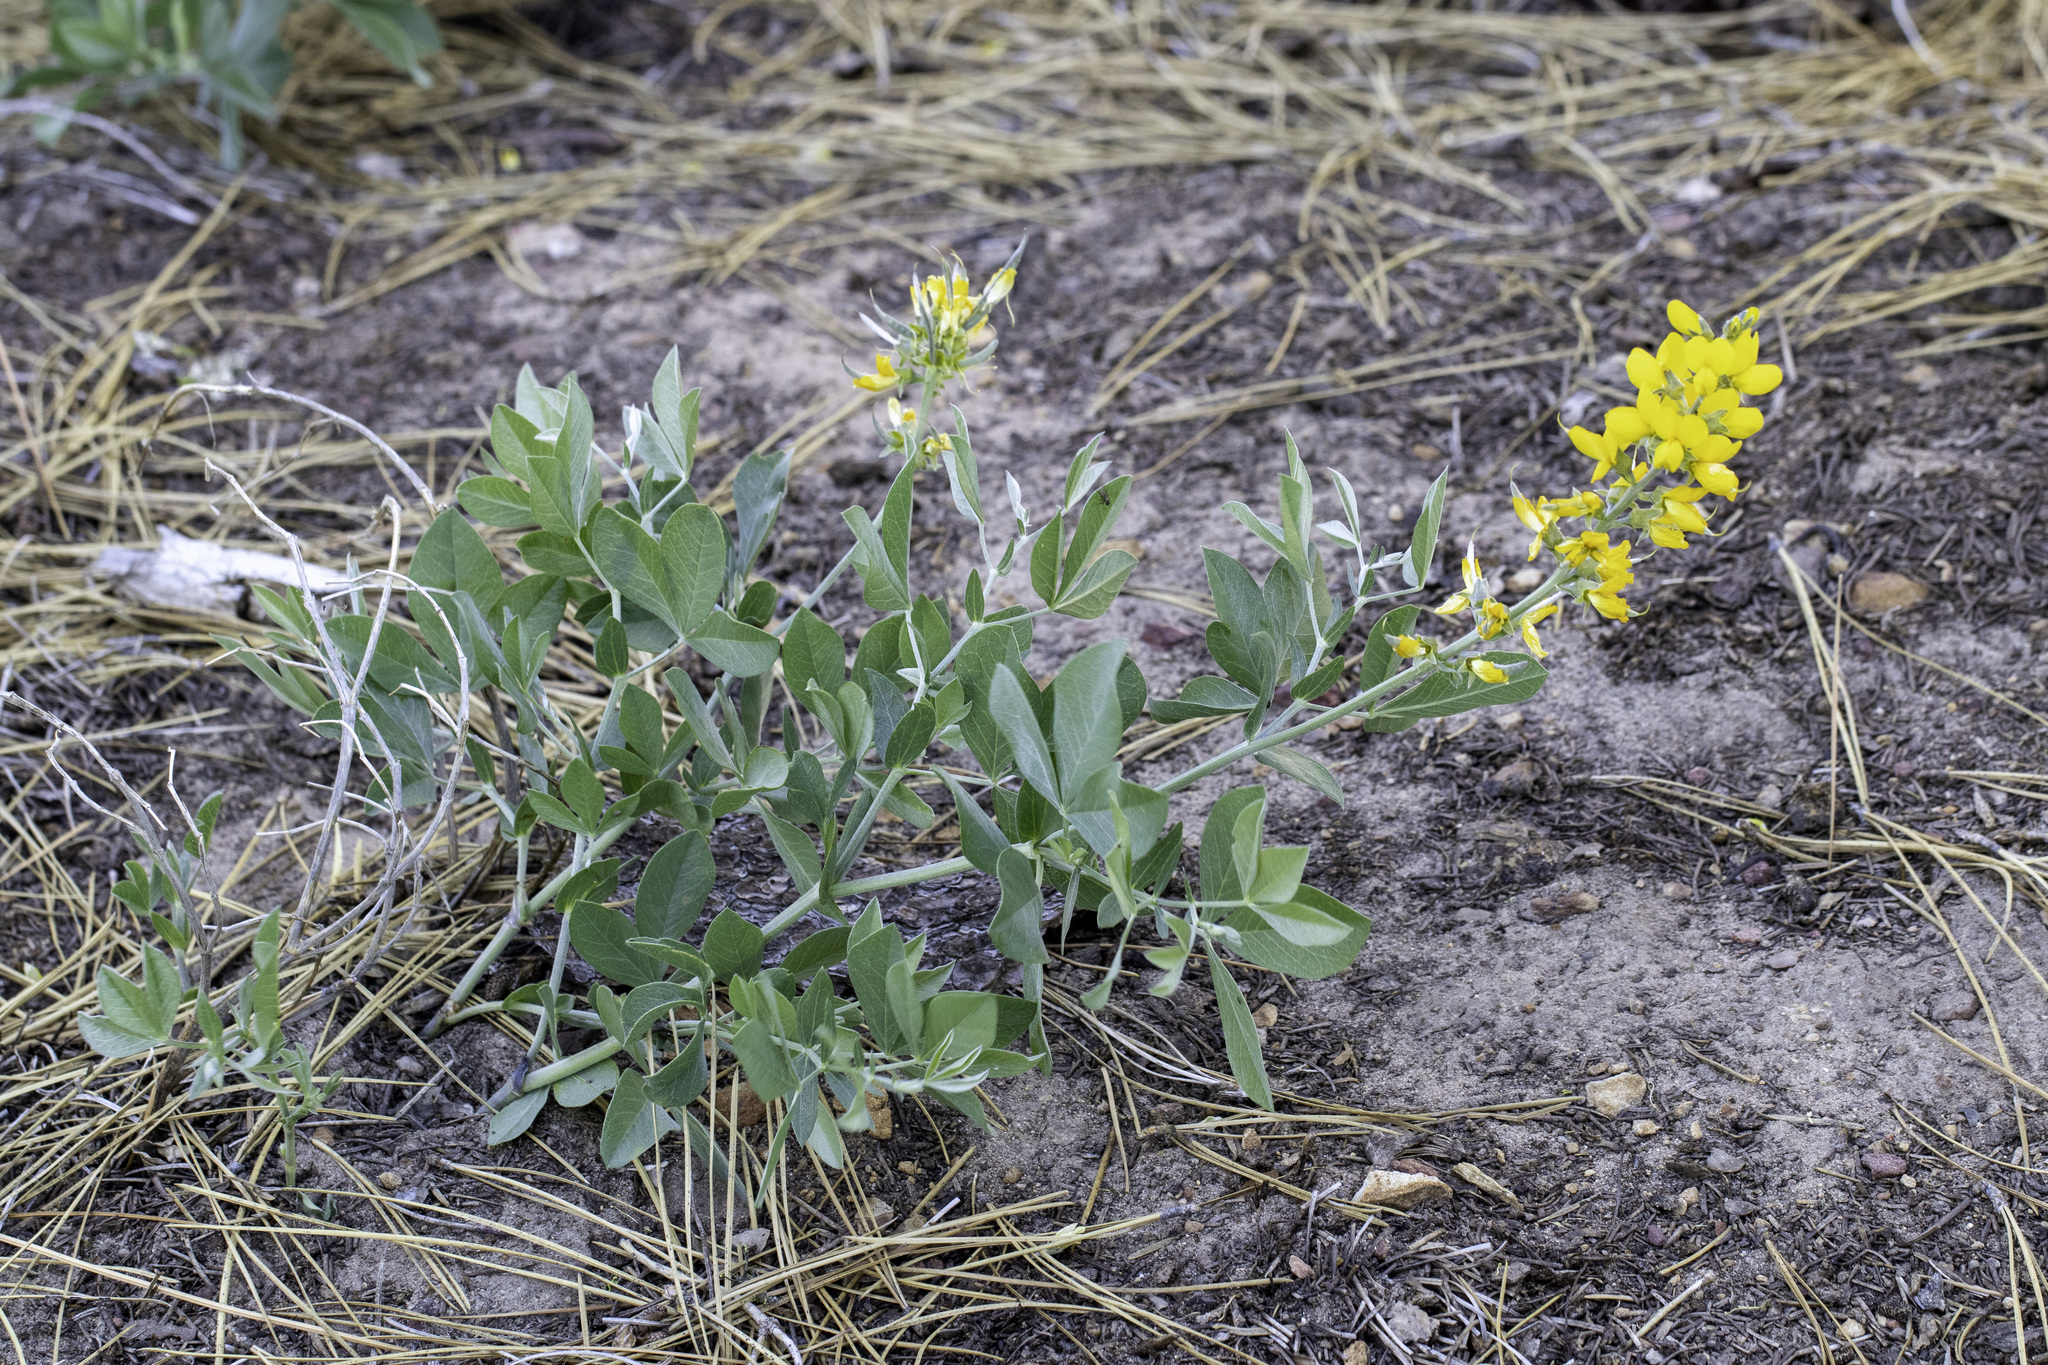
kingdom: Plantae
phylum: Tracheophyta
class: Magnoliopsida
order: Fabales
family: Fabaceae
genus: Thermopsis
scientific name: Thermopsis californica
